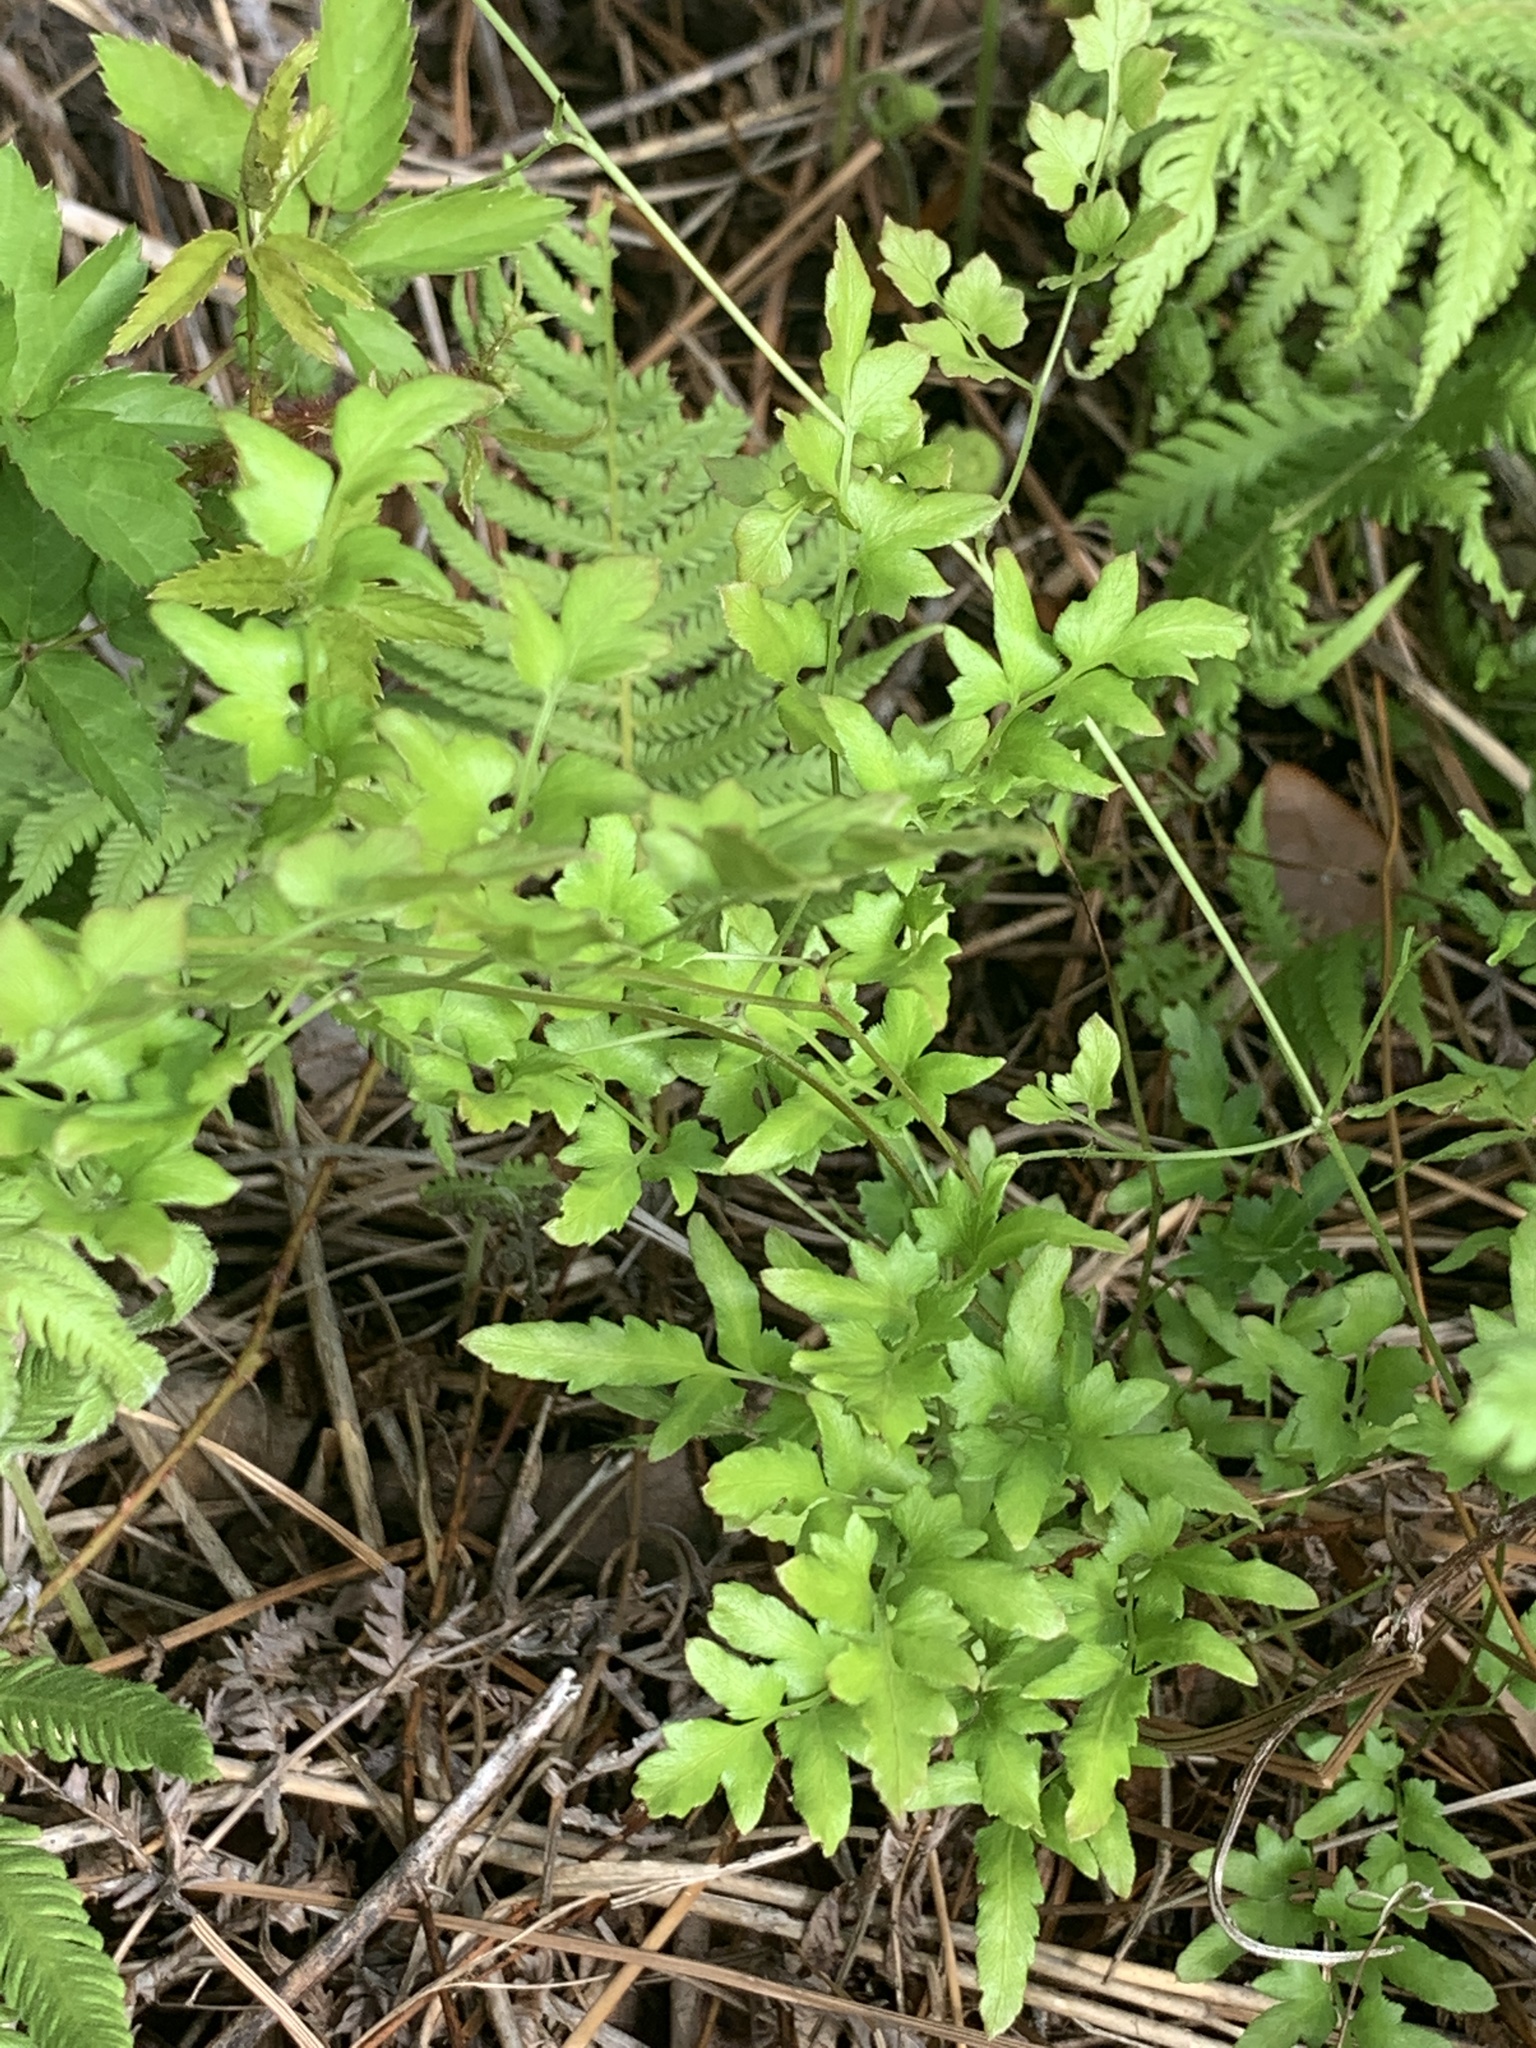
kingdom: Plantae
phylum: Tracheophyta
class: Polypodiopsida
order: Schizaeales
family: Lygodiaceae
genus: Lygodium
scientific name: Lygodium japonicum
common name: Japanese climbing fern
